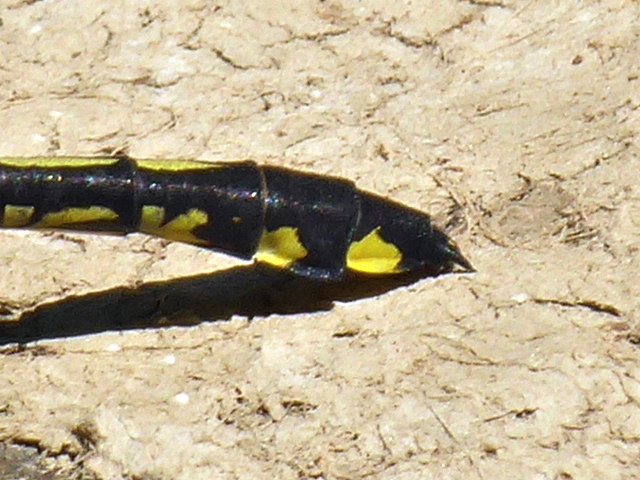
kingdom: Animalia
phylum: Arthropoda
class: Insecta
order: Odonata
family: Gomphidae
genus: Gomphurus
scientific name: Gomphurus lineatifrons
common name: Splendid clubtail
